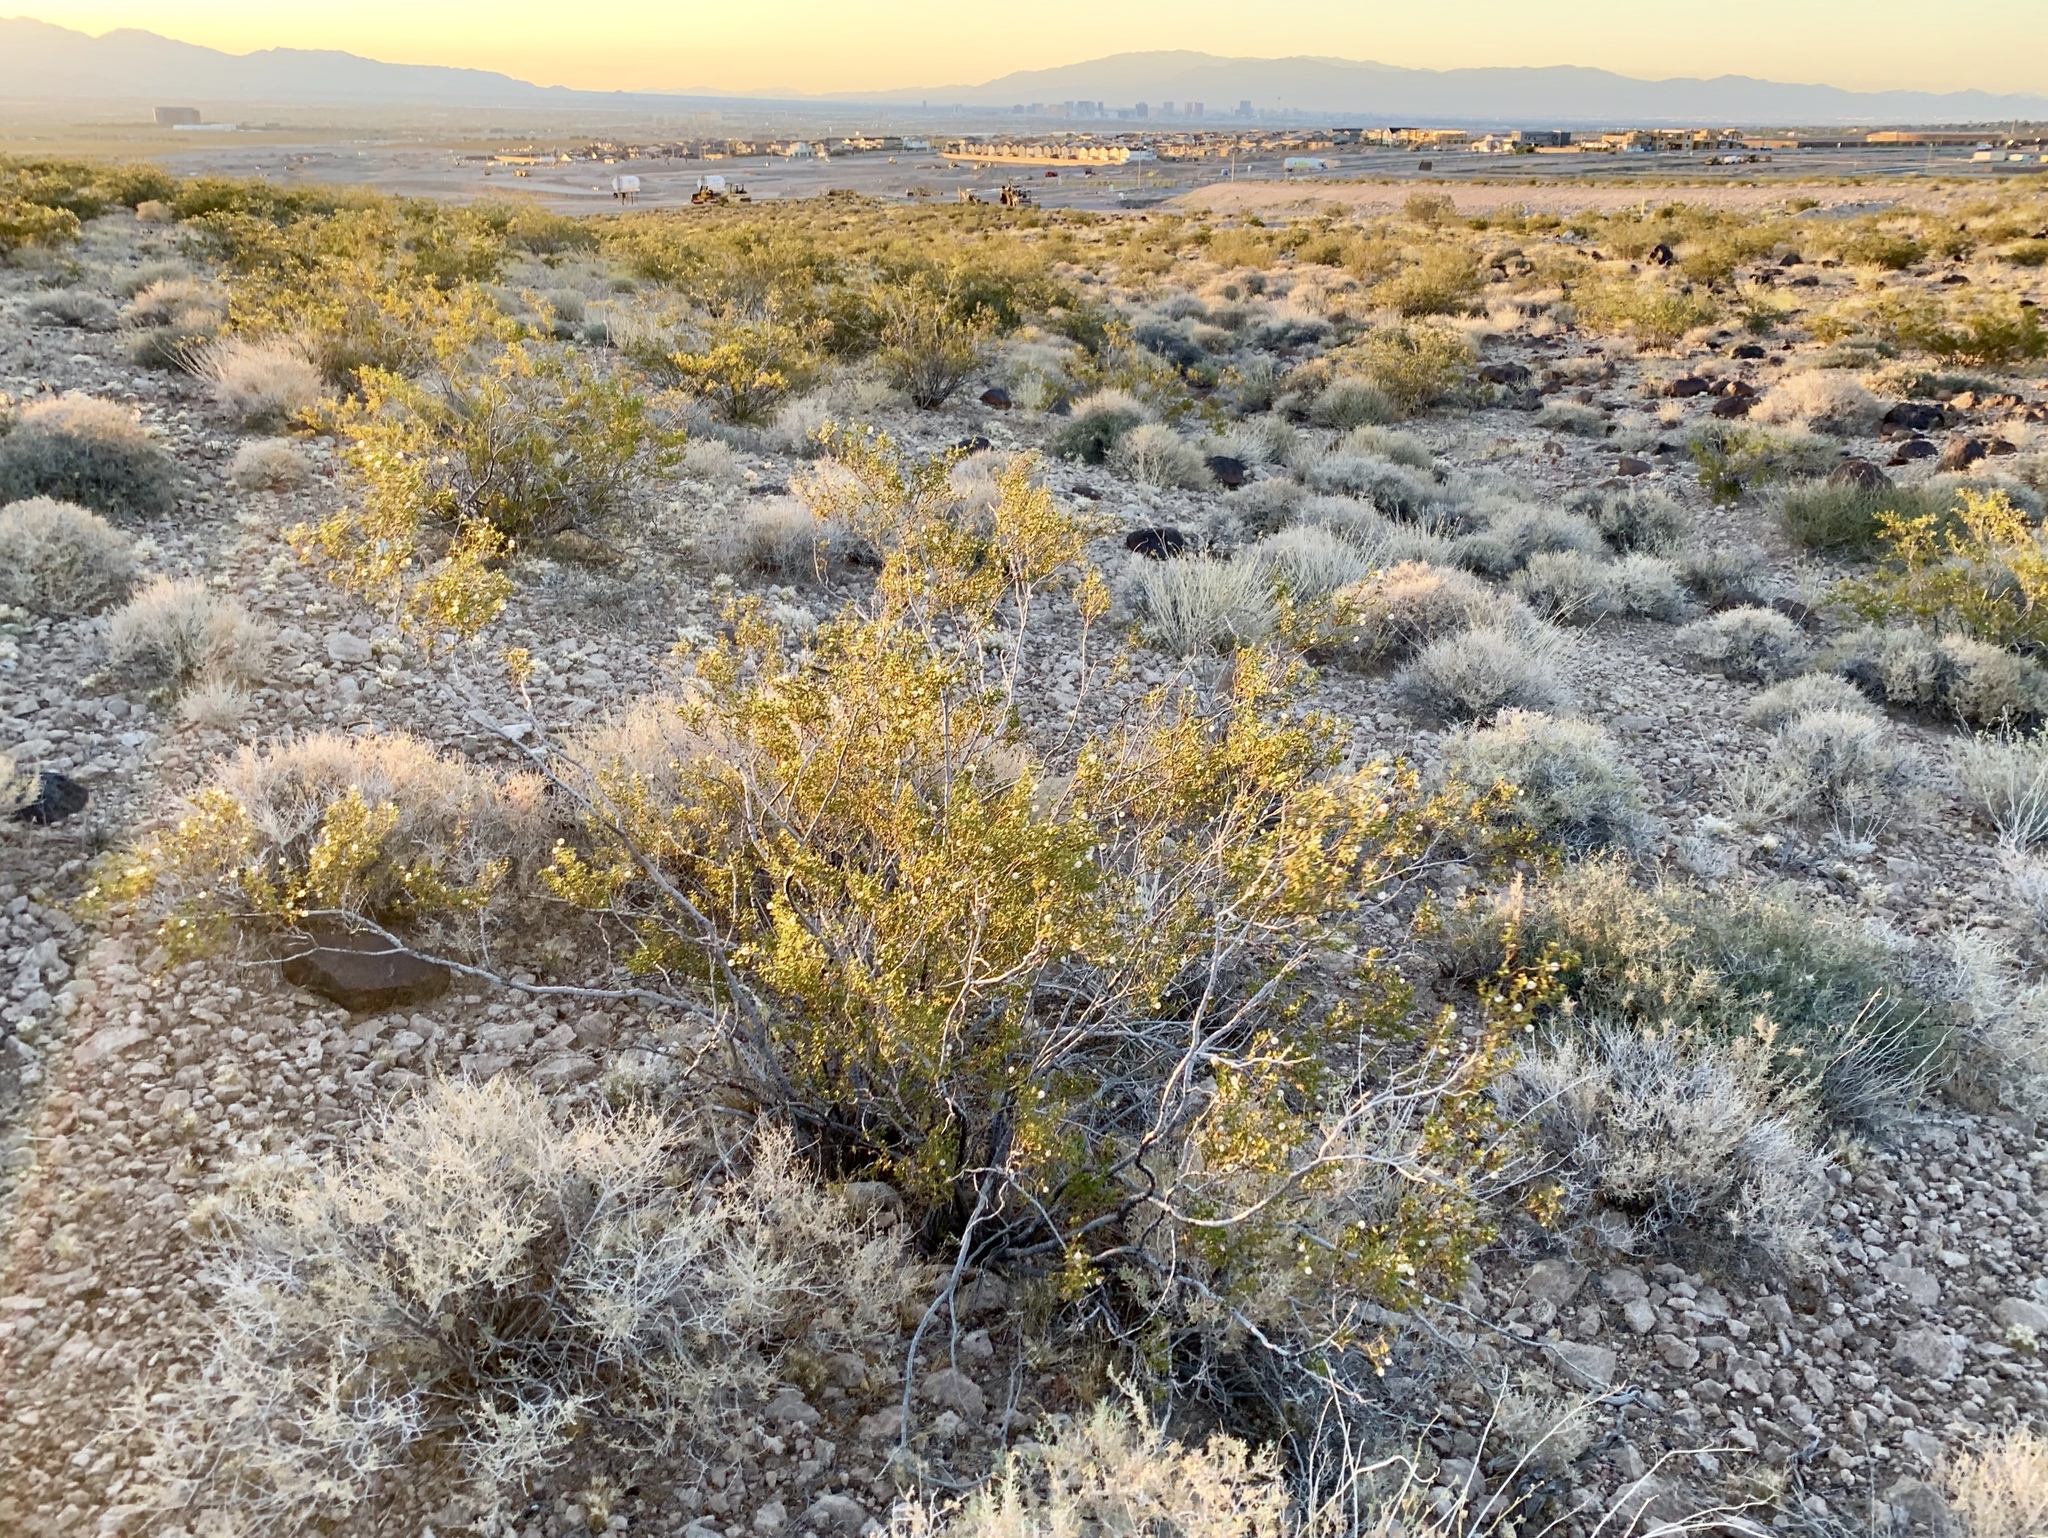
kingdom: Plantae
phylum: Tracheophyta
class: Magnoliopsida
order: Zygophyllales
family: Zygophyllaceae
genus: Larrea
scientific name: Larrea tridentata
